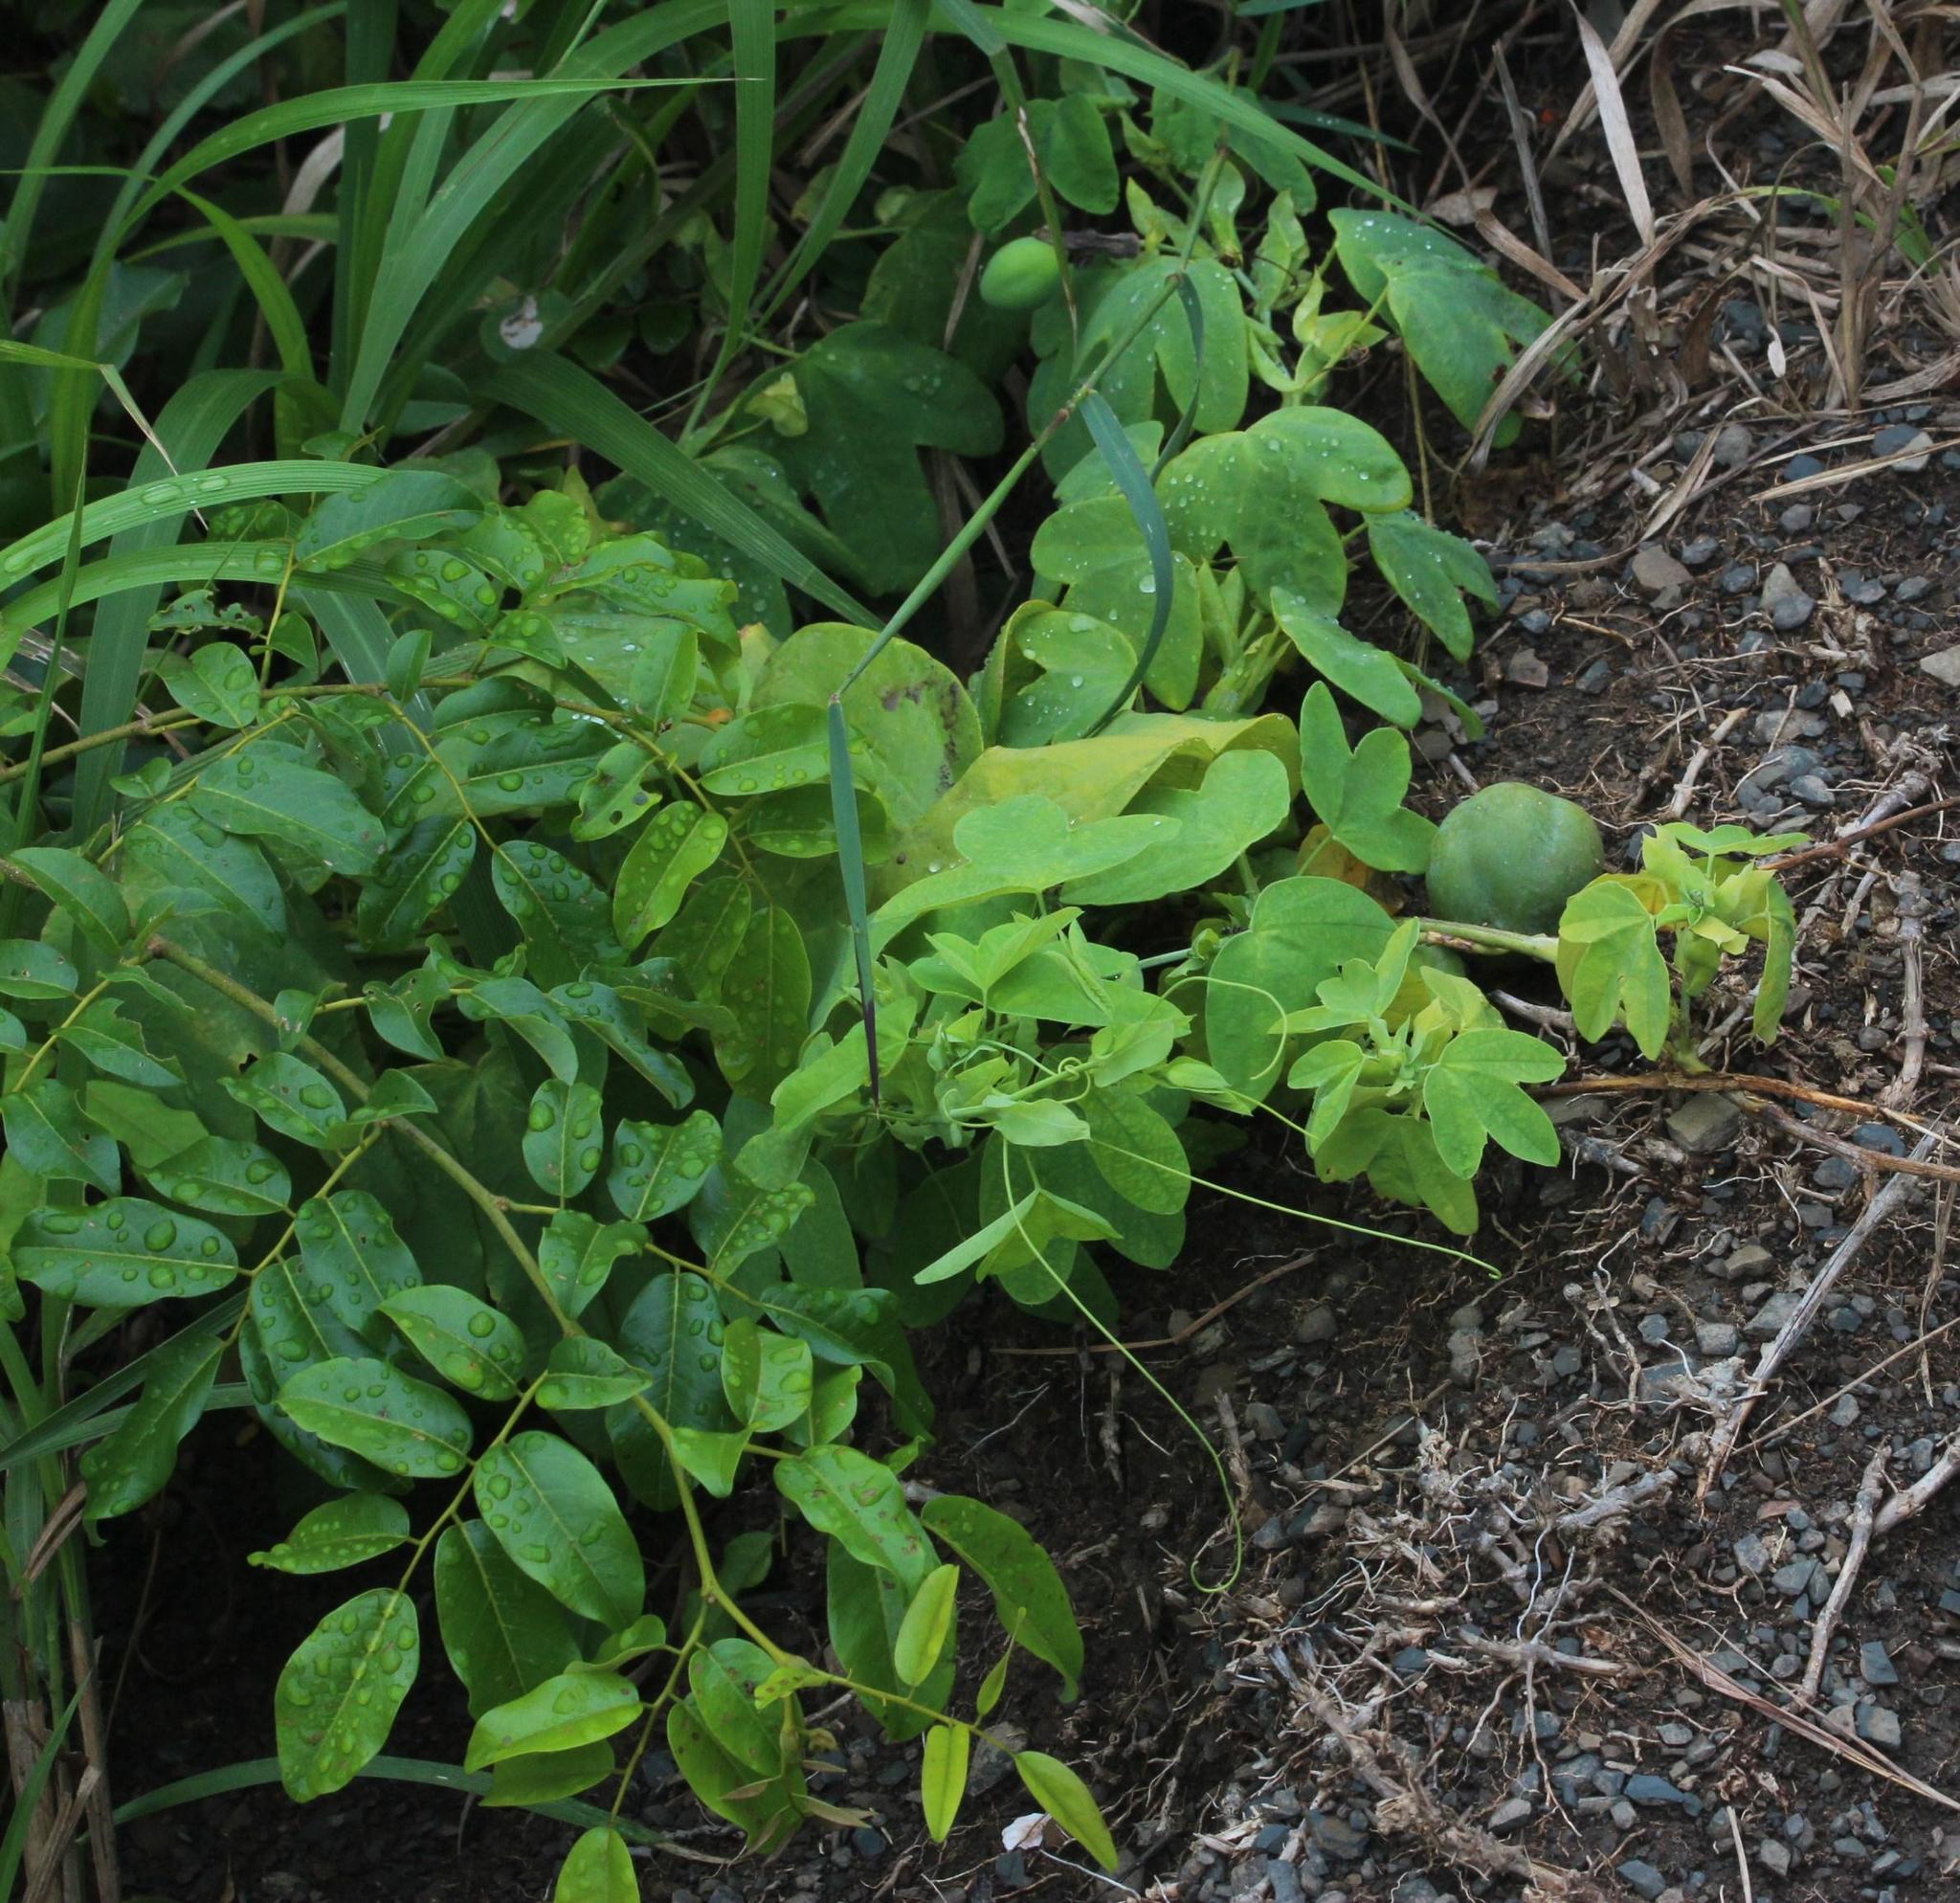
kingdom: Plantae
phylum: Tracheophyta
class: Magnoliopsida
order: Malpighiales
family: Passifloraceae
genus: Passiflora
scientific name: Passiflora subpeltata
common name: White passionflower
